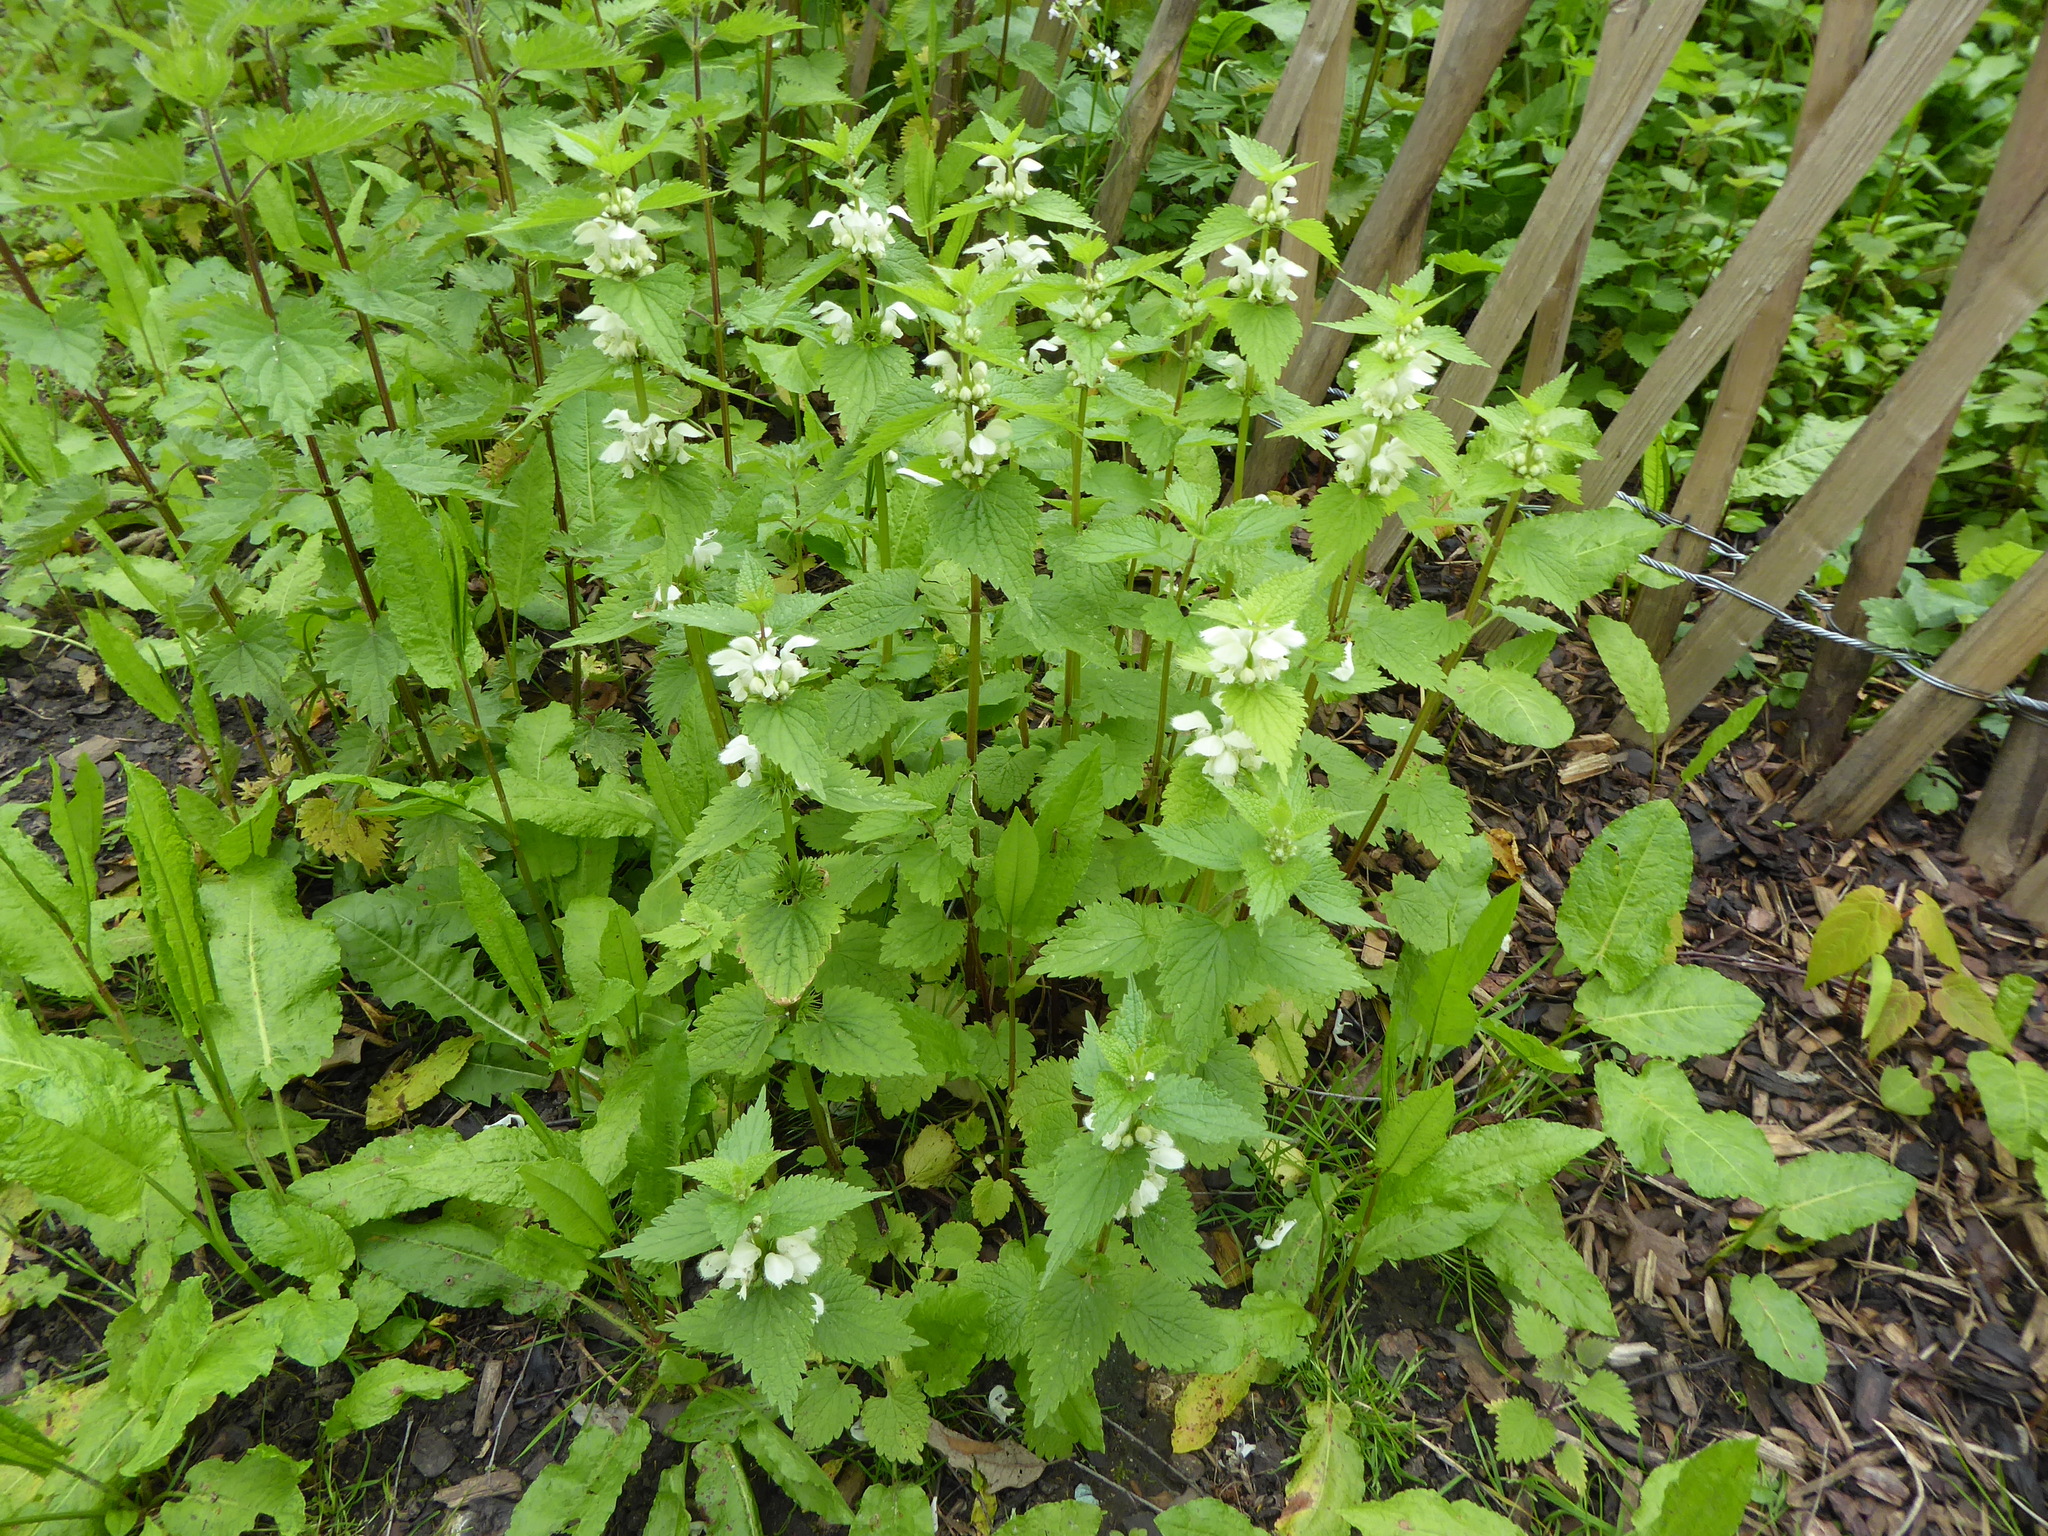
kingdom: Plantae
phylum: Tracheophyta
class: Magnoliopsida
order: Lamiales
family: Lamiaceae
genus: Lamium
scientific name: Lamium album
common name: White dead-nettle
